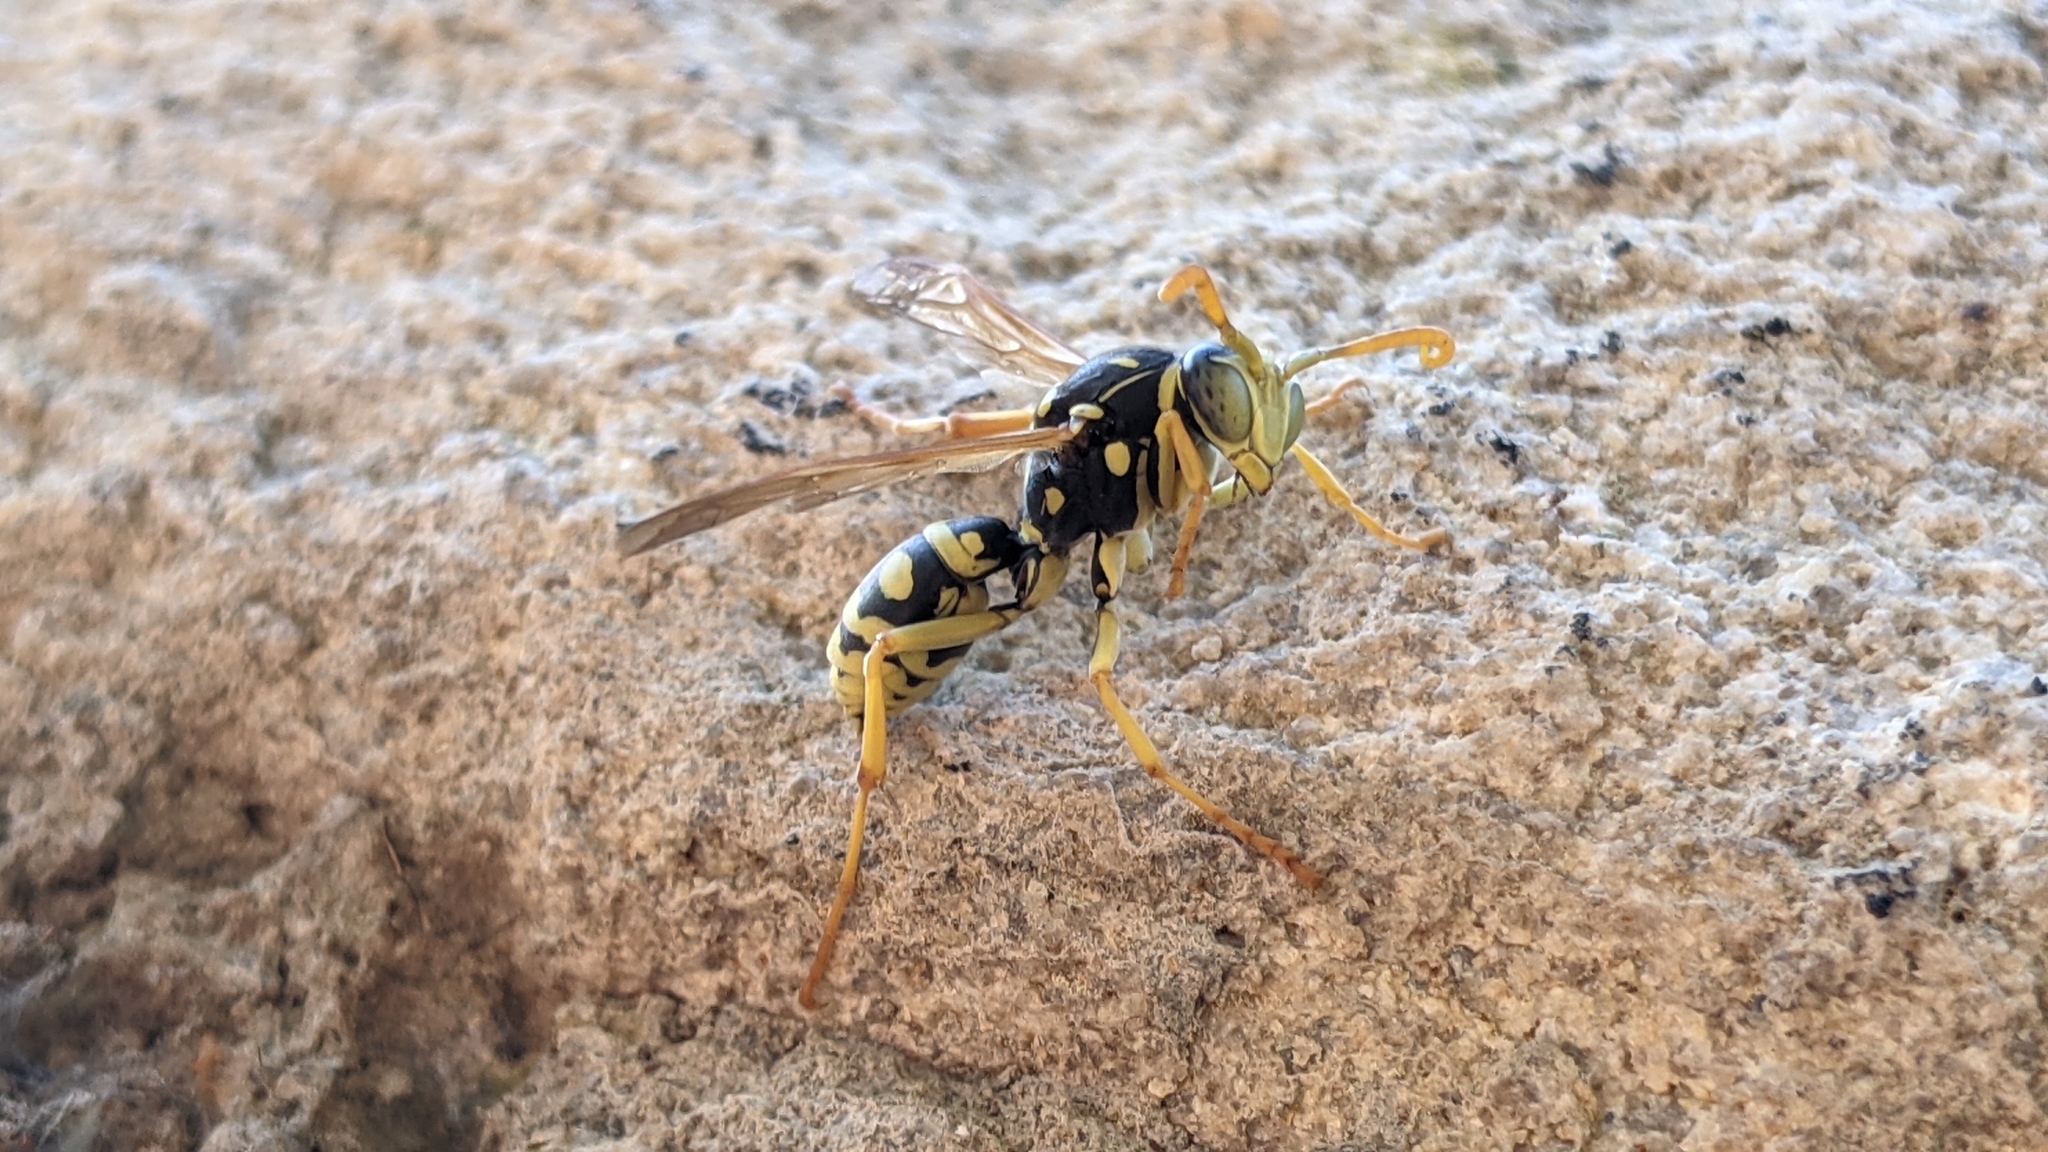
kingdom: Animalia
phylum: Arthropoda
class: Insecta
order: Hymenoptera
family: Eumenidae
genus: Polistes
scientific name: Polistes gallicus
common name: Paper wasp
